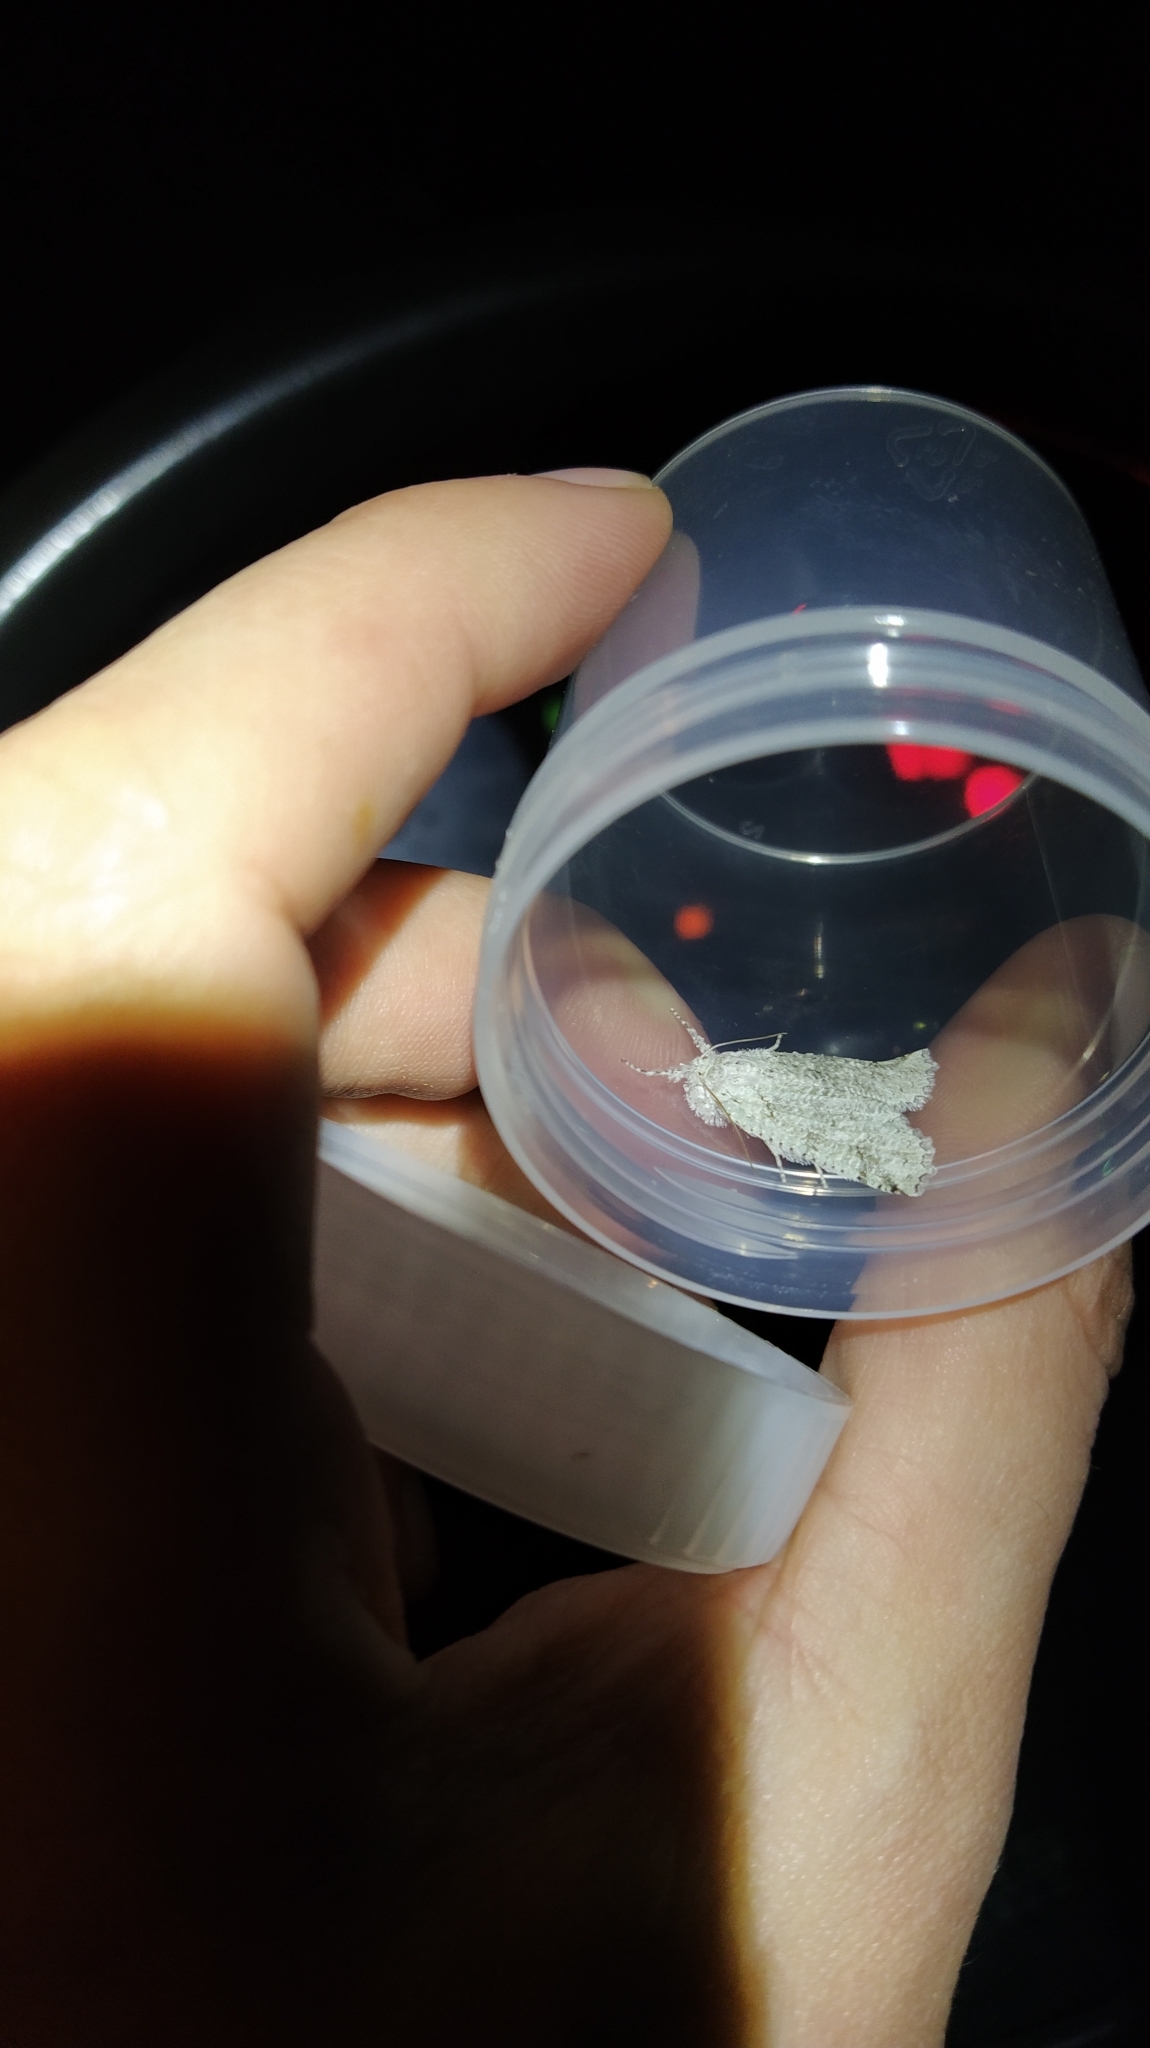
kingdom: Animalia
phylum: Arthropoda
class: Insecta
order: Lepidoptera
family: Geometridae
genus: Declana
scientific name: Declana floccosa
